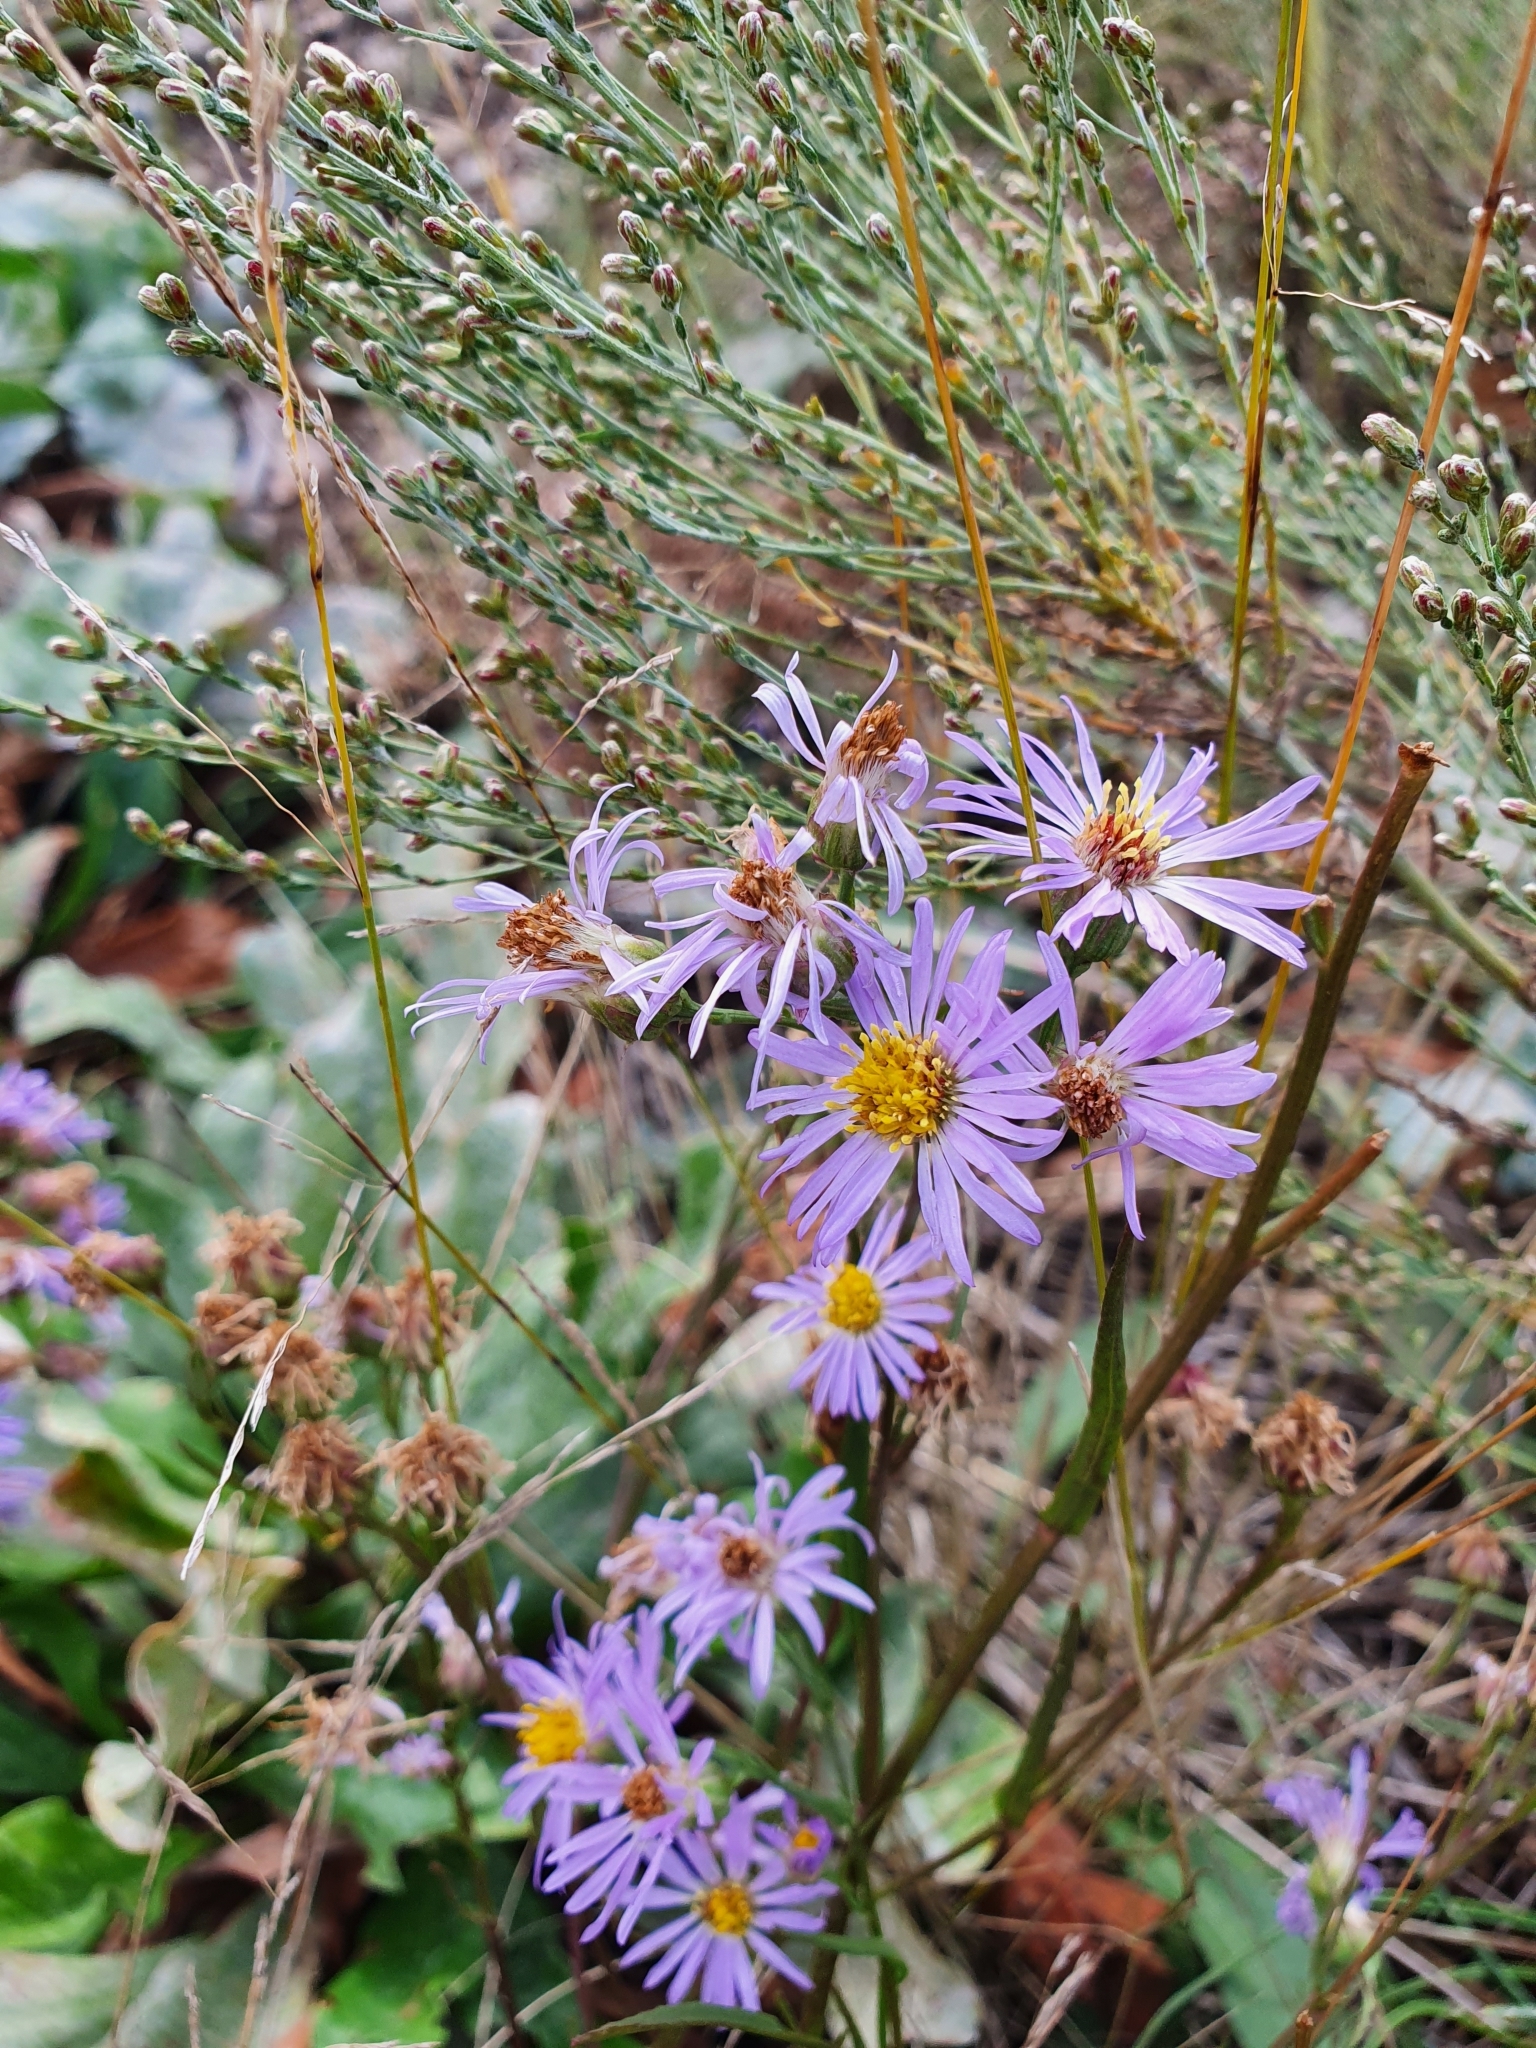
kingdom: Plantae
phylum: Tracheophyta
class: Magnoliopsida
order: Asterales
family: Asteraceae
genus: Tripolium
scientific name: Tripolium pannonicum
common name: Sea aster
